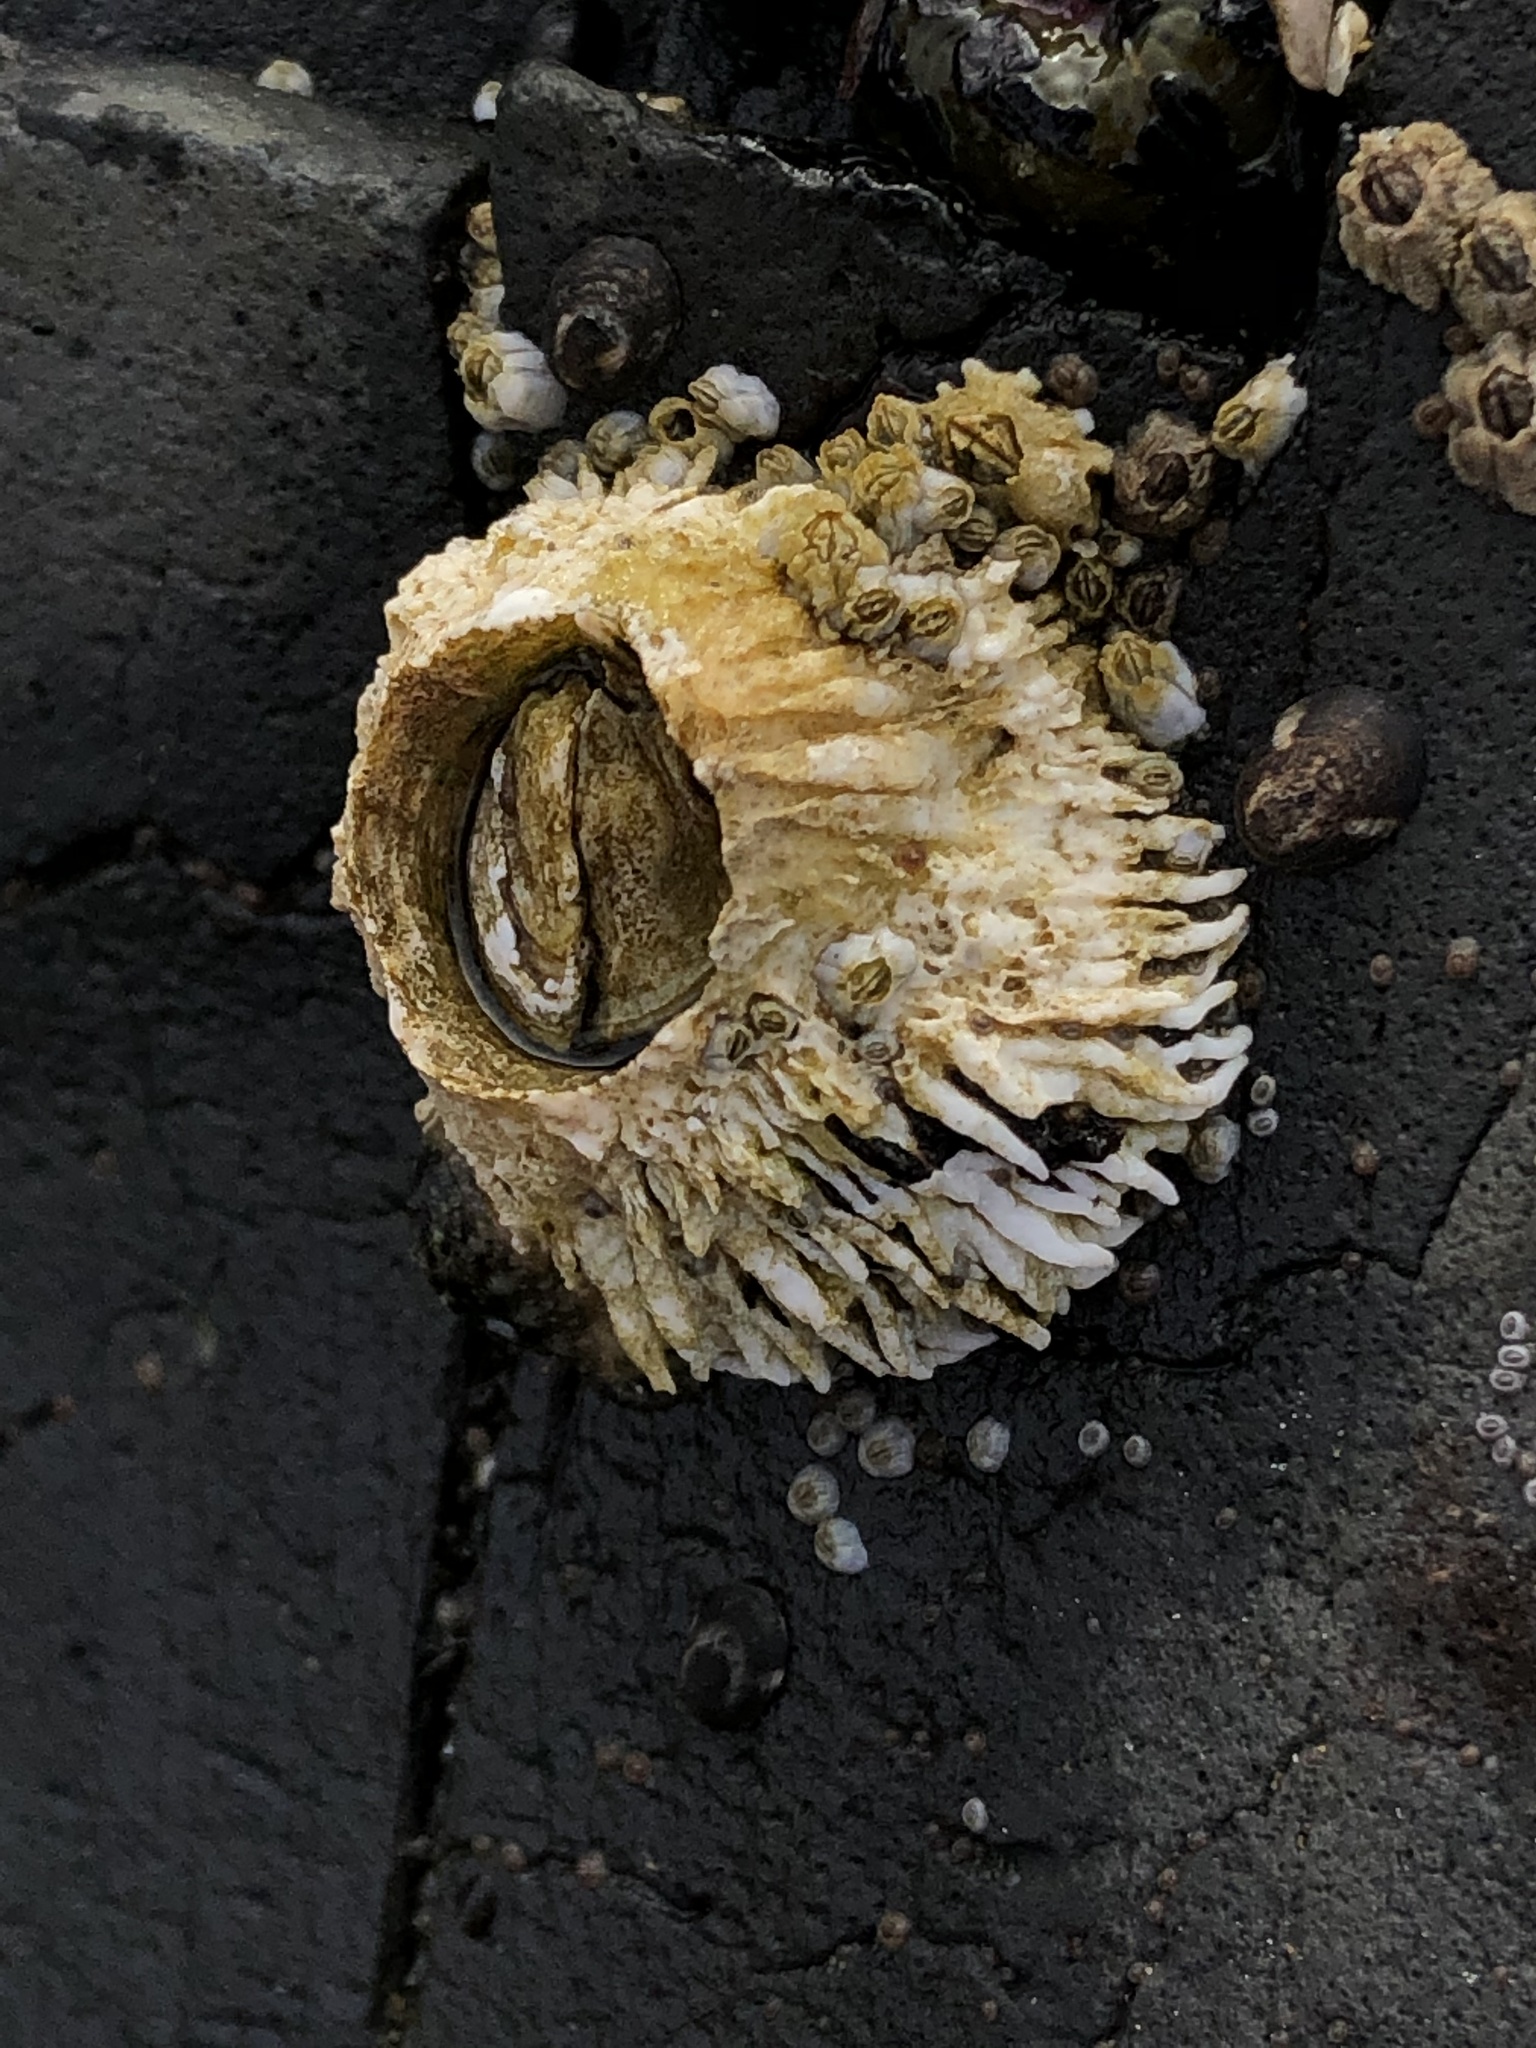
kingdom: Animalia
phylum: Arthropoda
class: Maxillopoda
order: Sessilia
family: Archaeobalanidae
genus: Semibalanus
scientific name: Semibalanus cariosus
